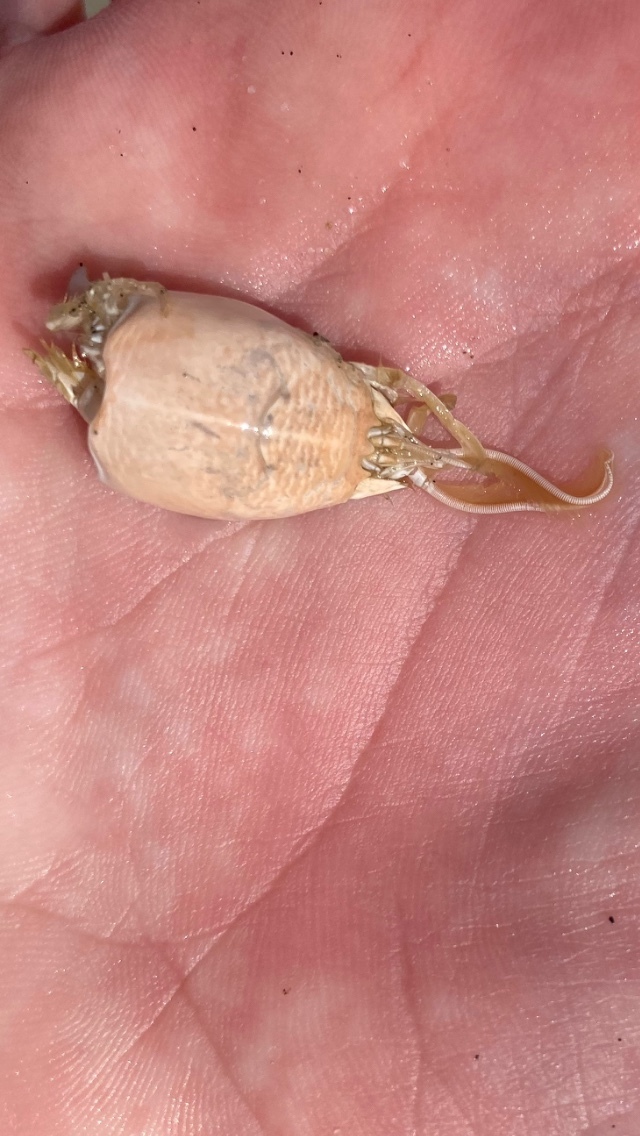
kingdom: Animalia
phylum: Arthropoda
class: Malacostraca
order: Decapoda
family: Hippidae
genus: Emerita
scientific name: Emerita talpoida
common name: Atlantic sand crab
